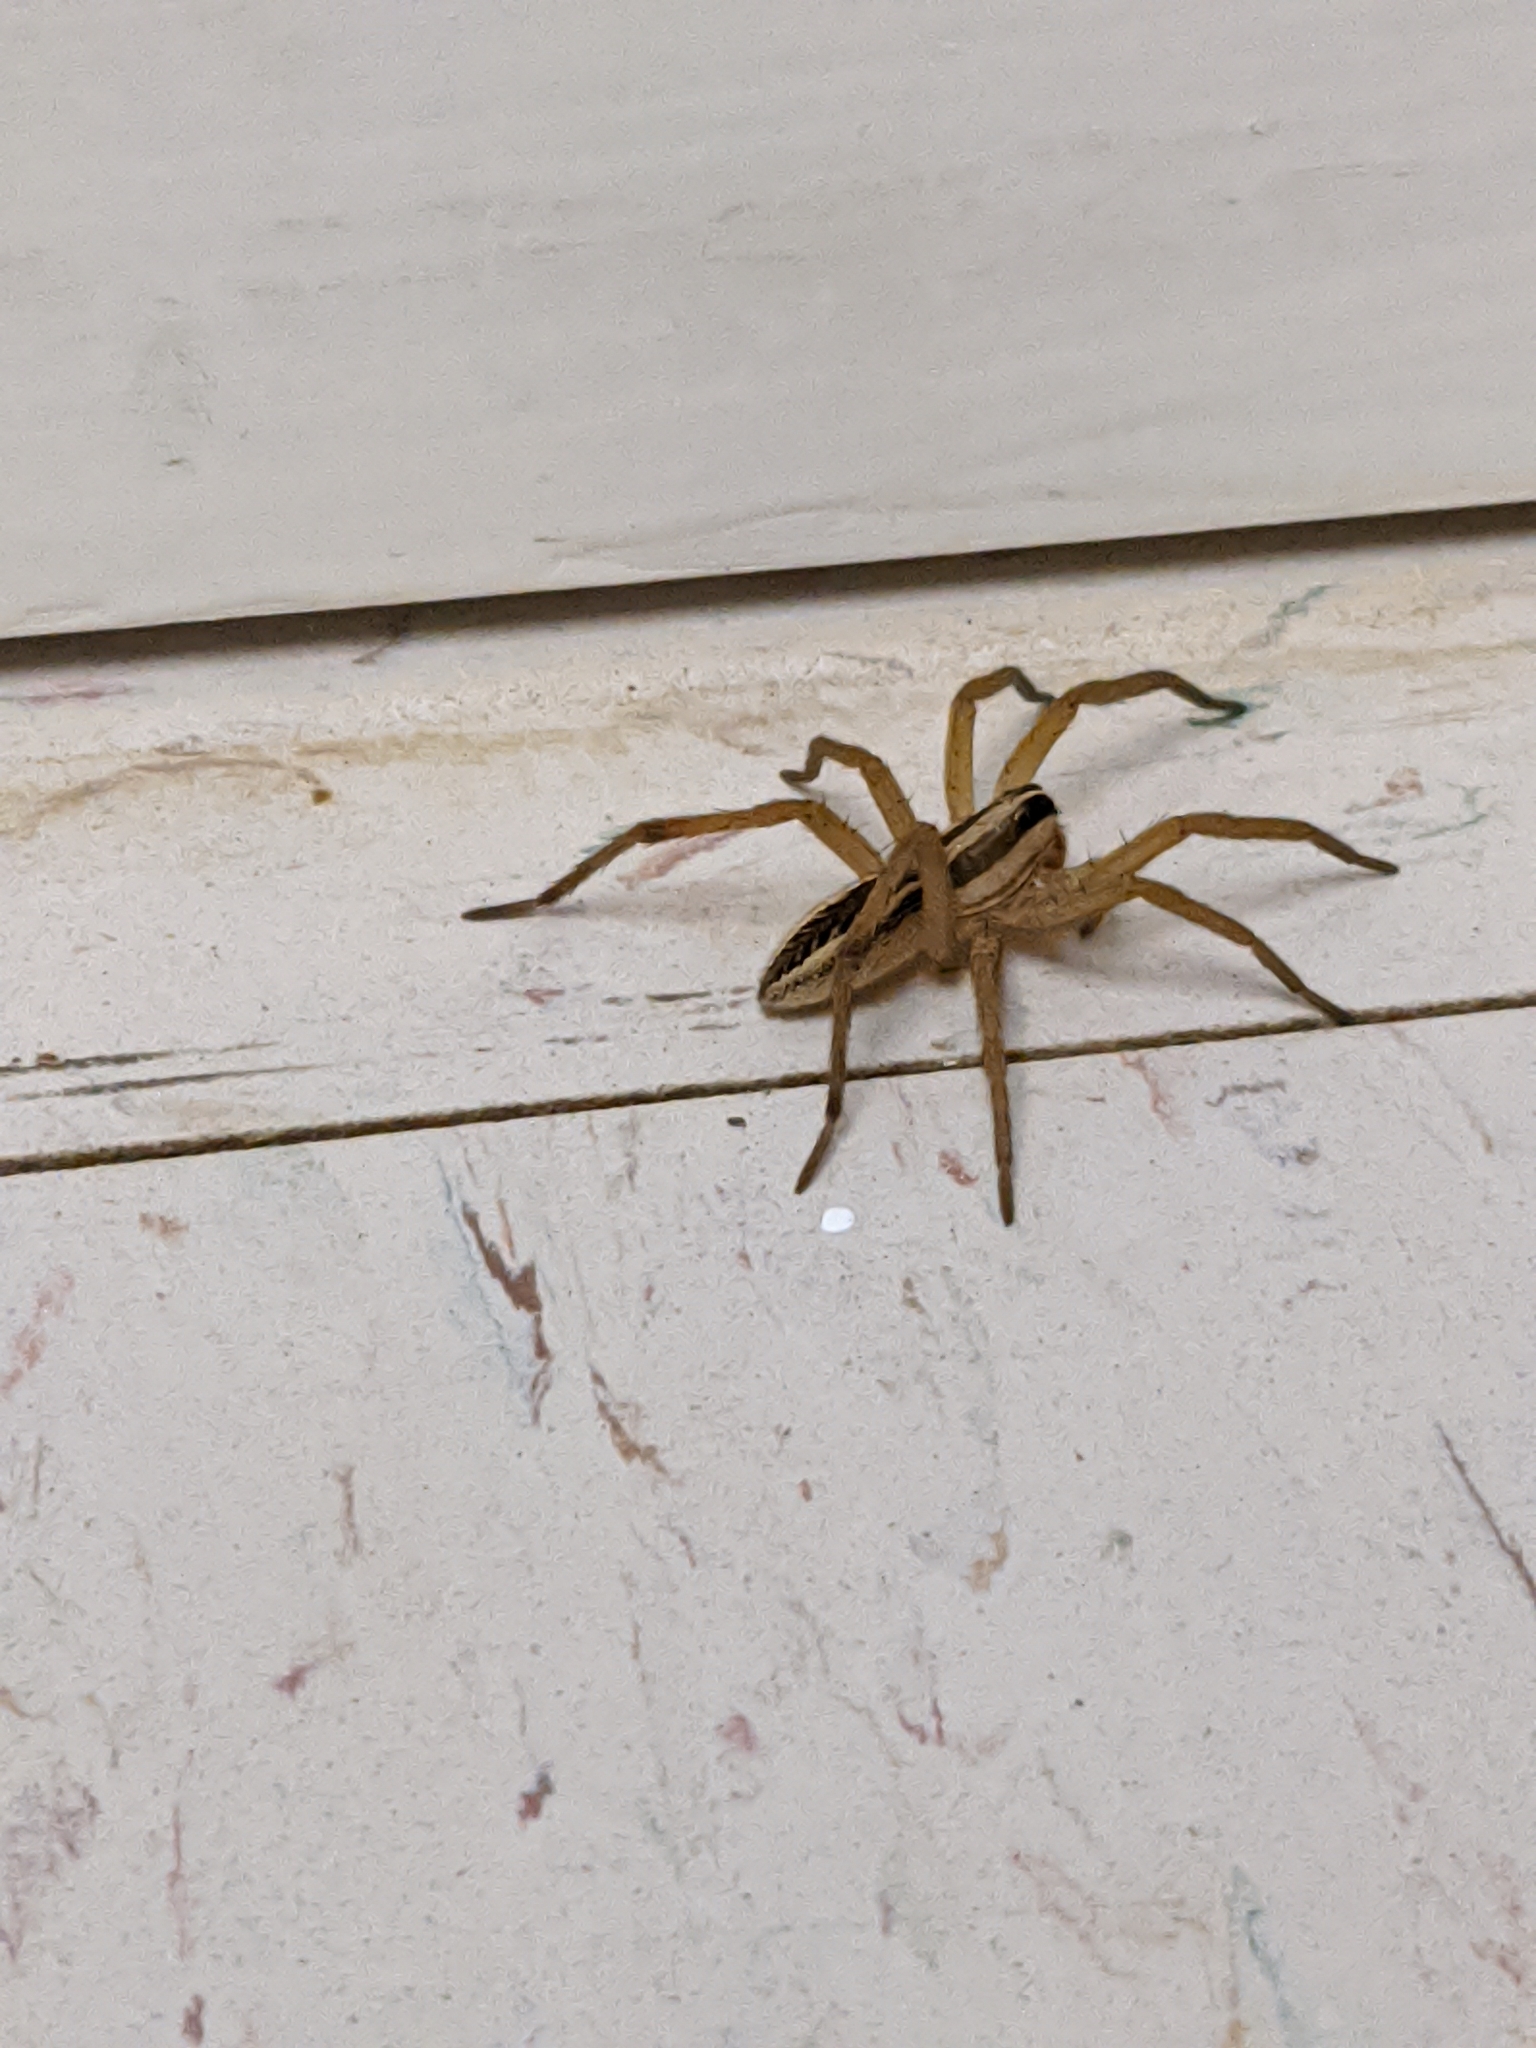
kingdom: Animalia
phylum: Arthropoda
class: Arachnida
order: Araneae
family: Lycosidae
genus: Rabidosa
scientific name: Rabidosa rabida
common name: Rabid wolf spider
